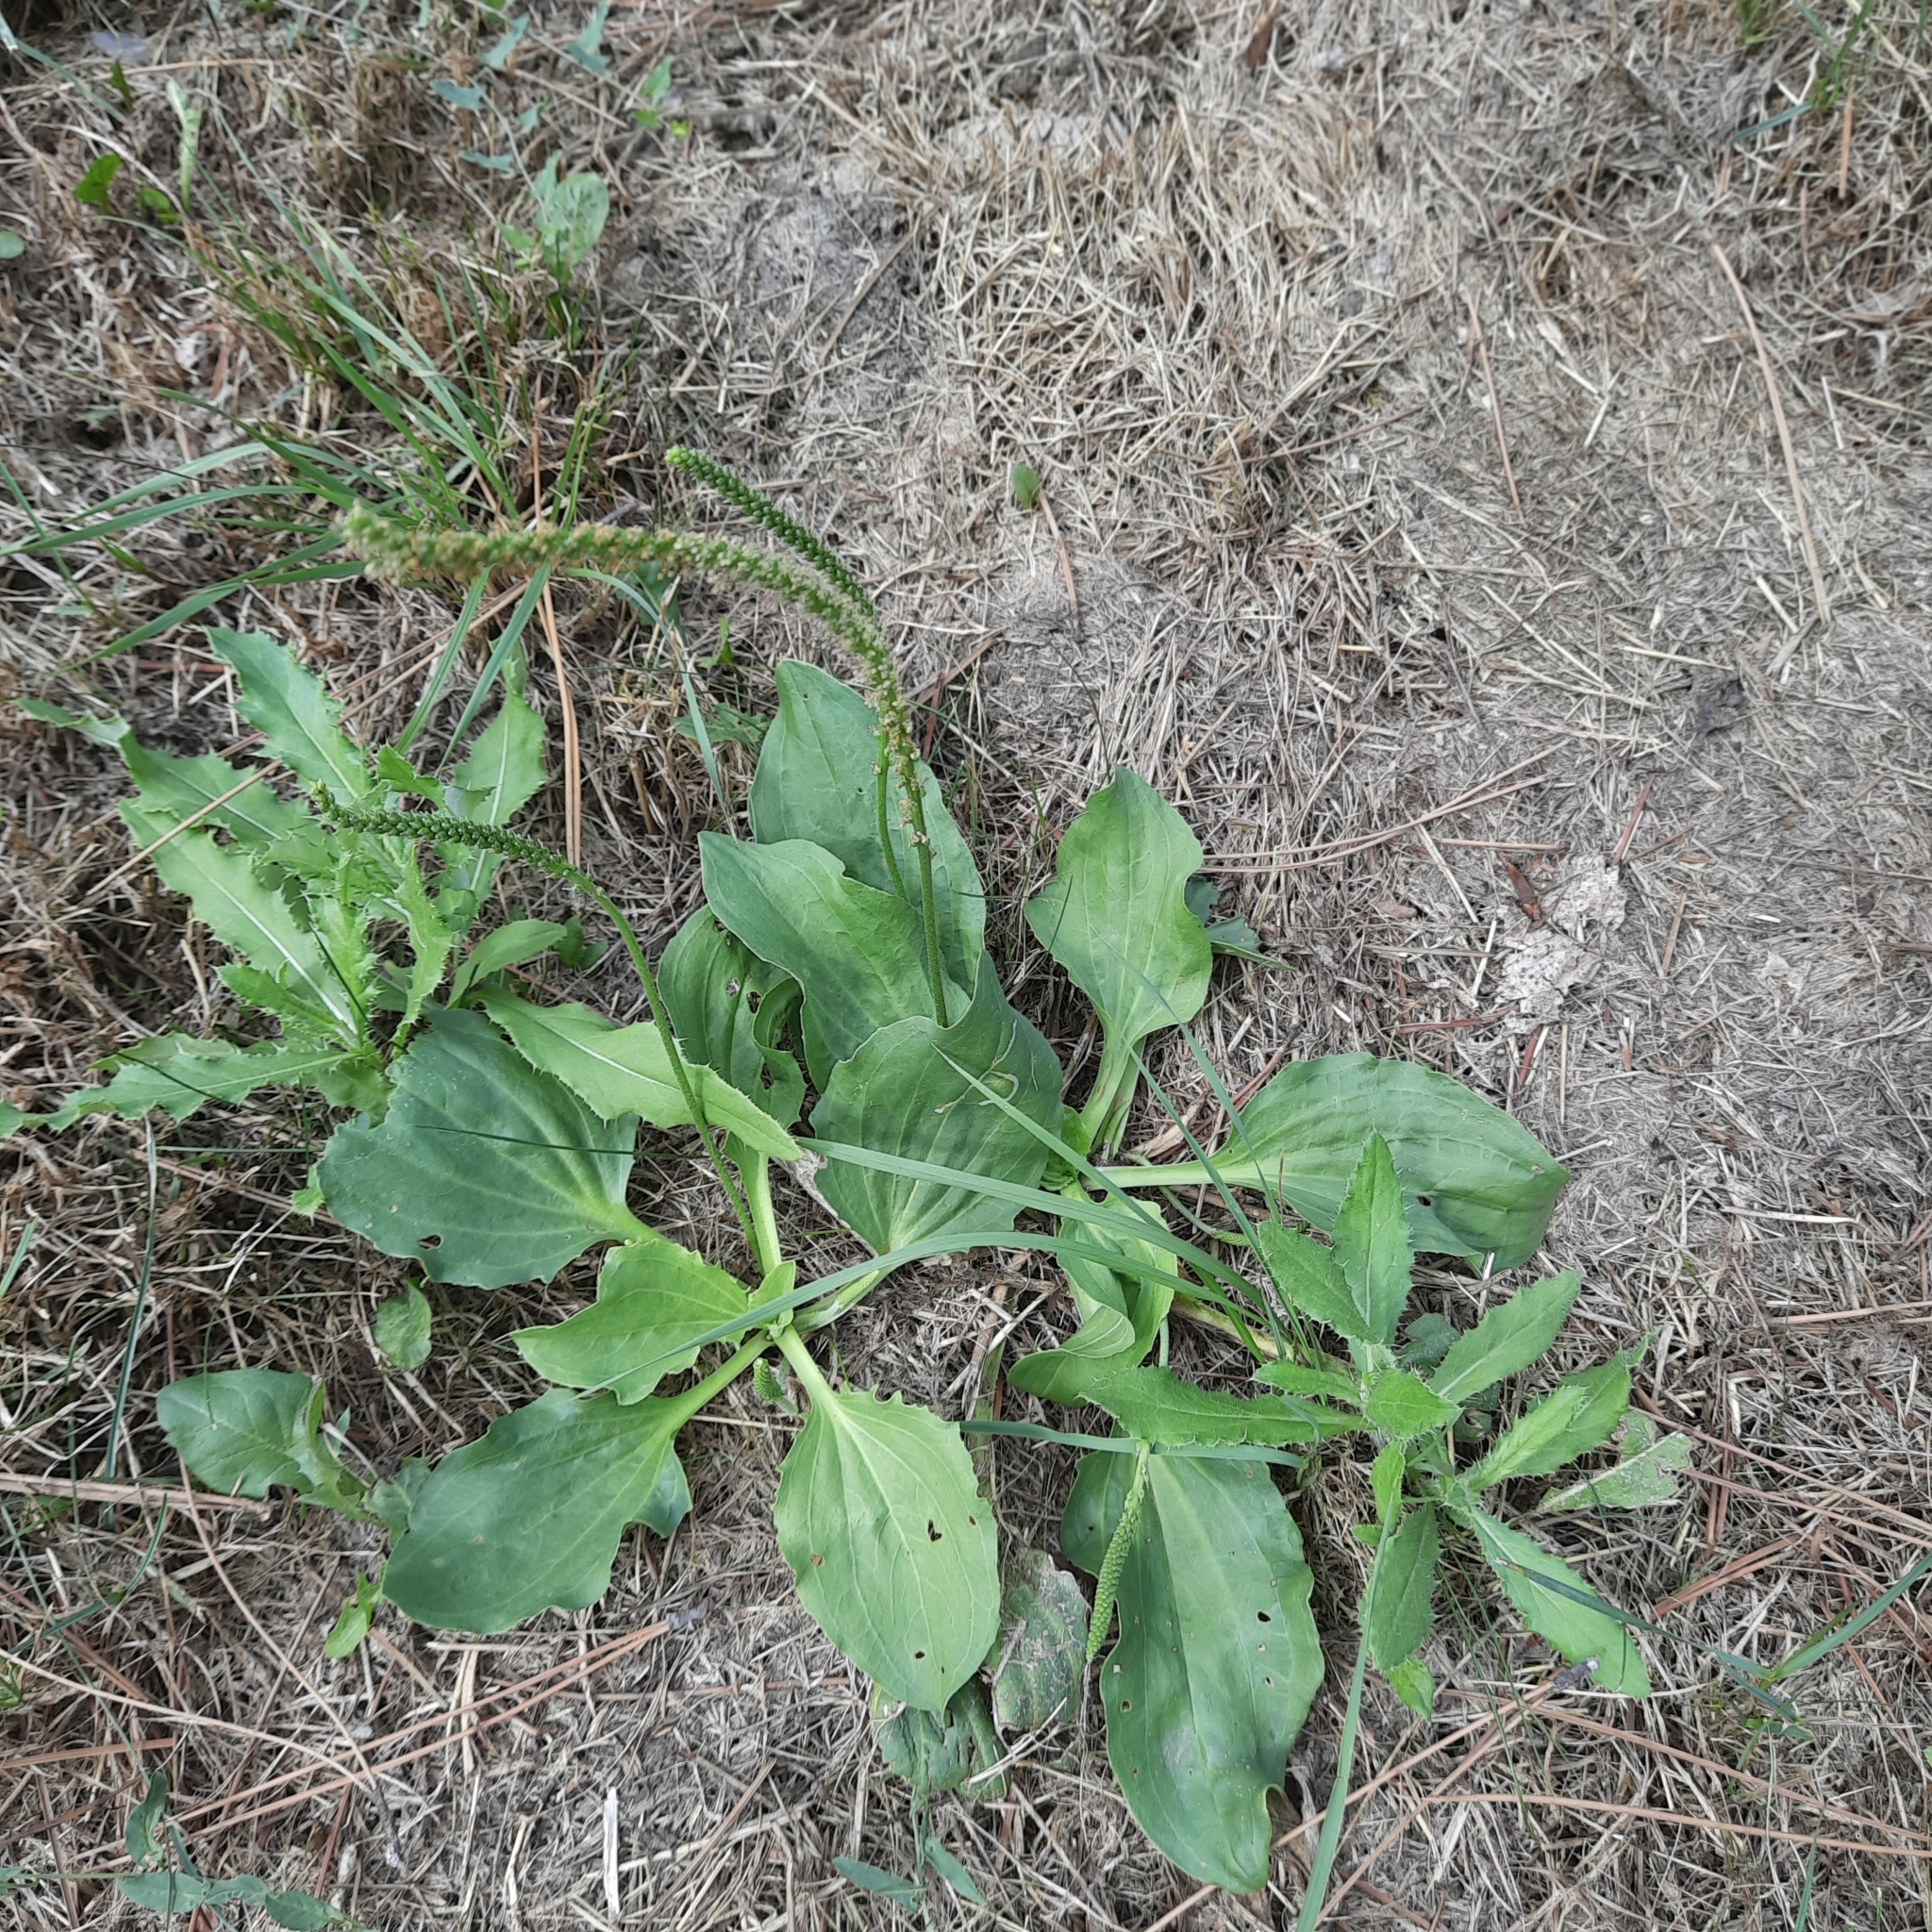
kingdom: Plantae
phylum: Tracheophyta
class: Magnoliopsida
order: Lamiales
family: Plantaginaceae
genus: Plantago
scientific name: Plantago major
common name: Common plantain
